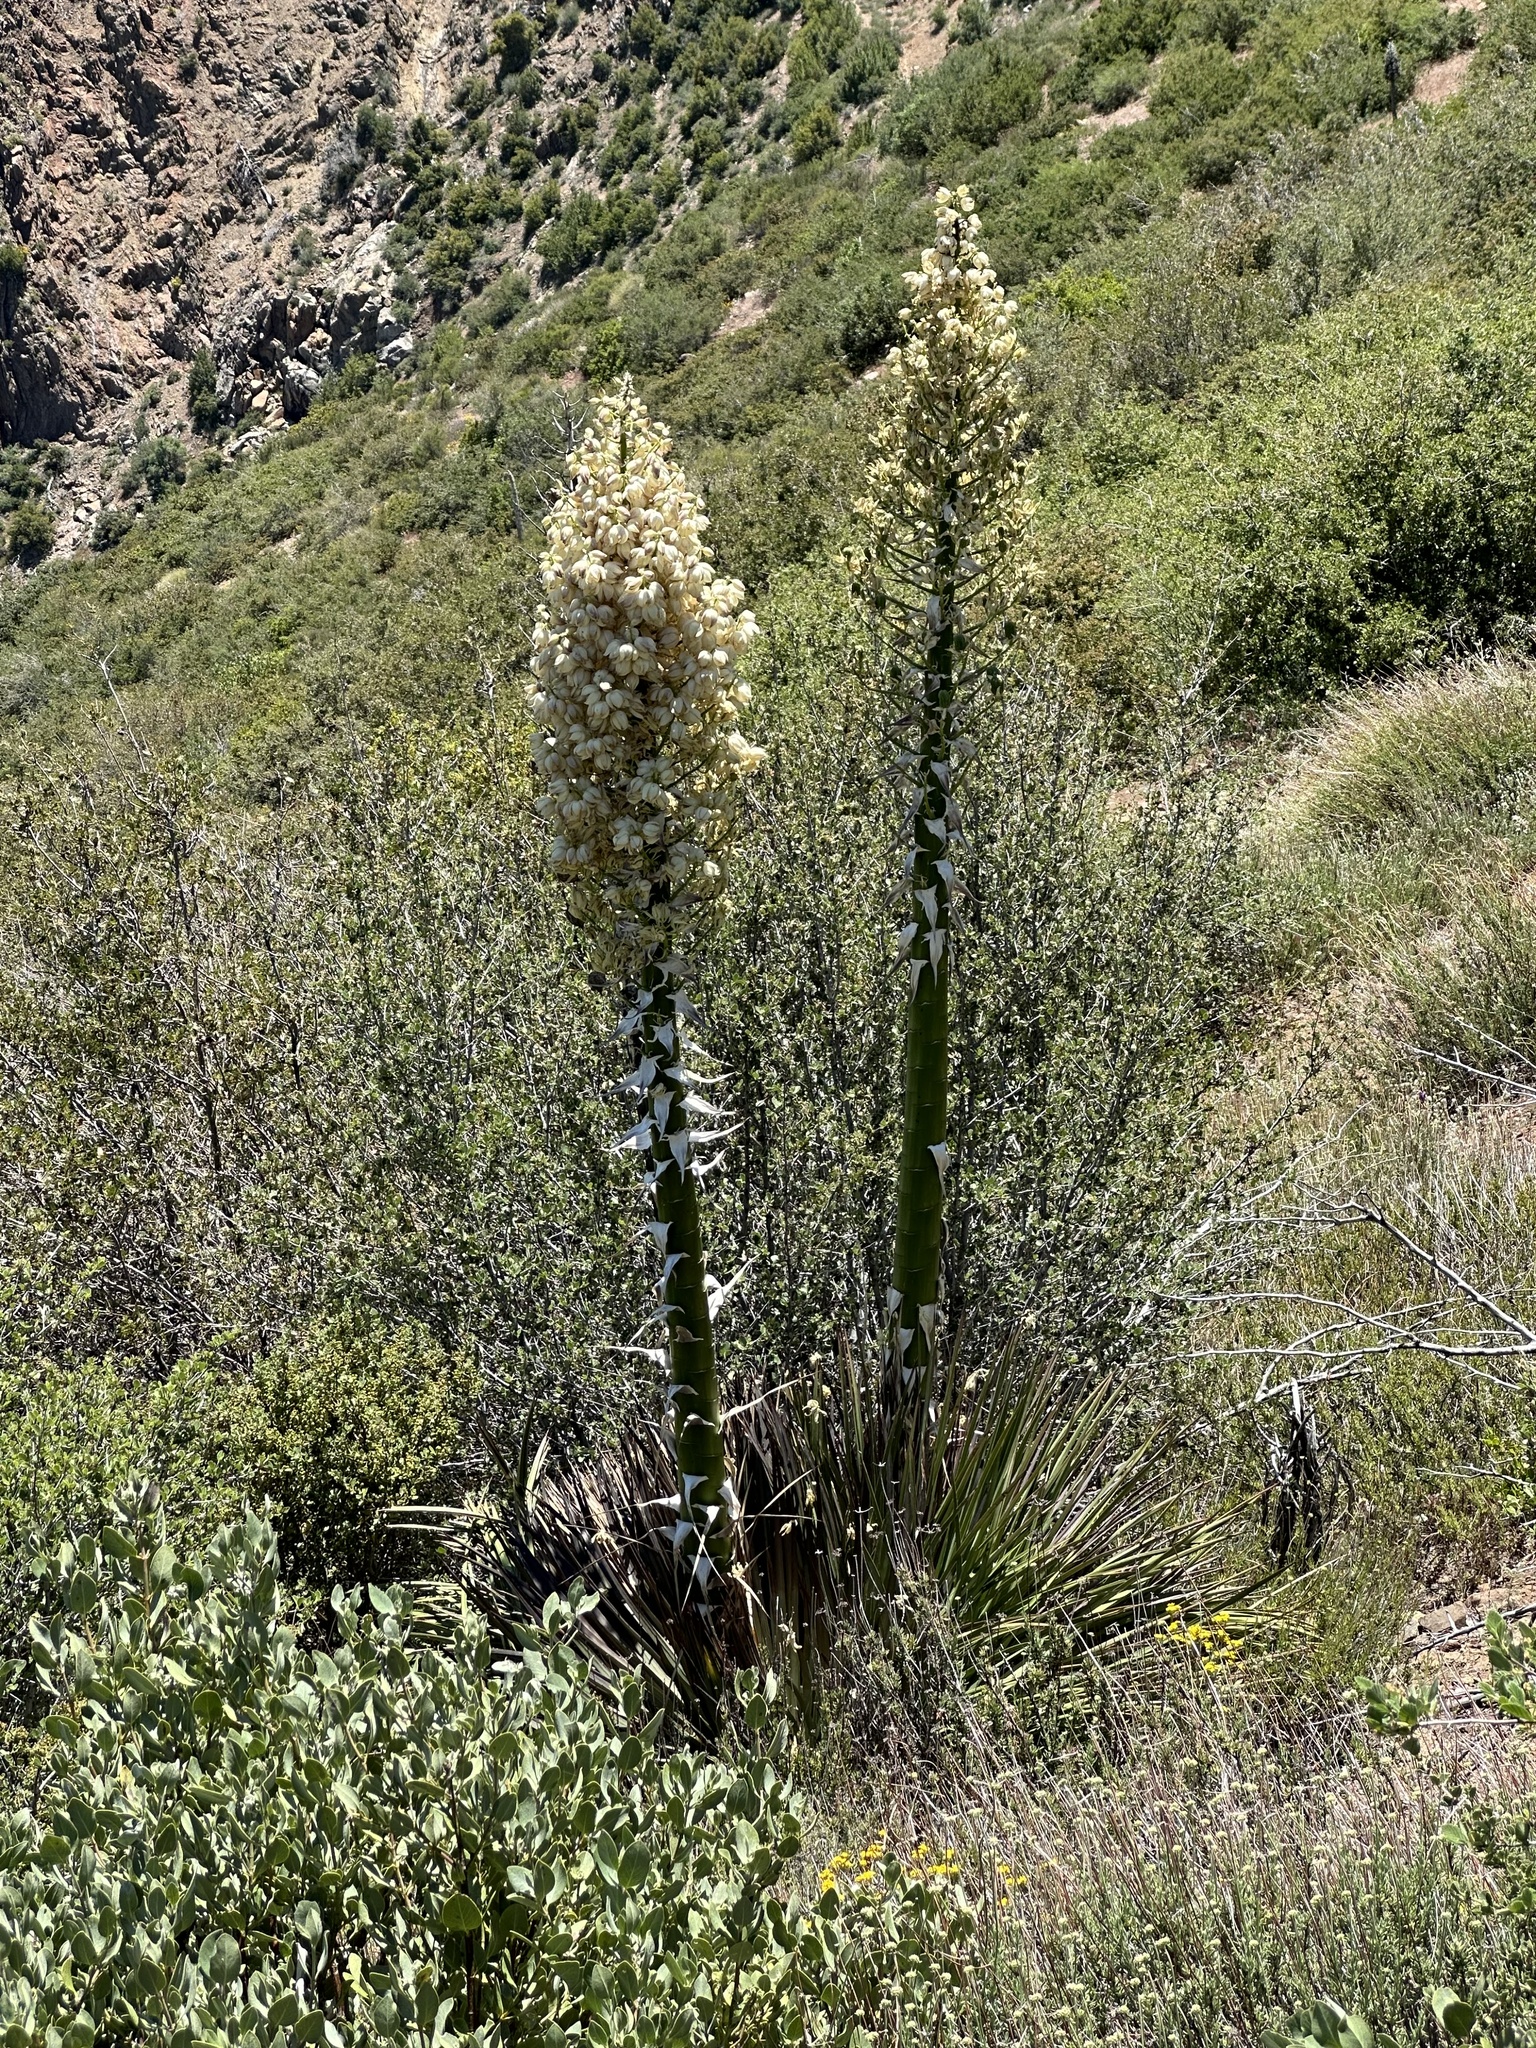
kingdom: Plantae
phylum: Tracheophyta
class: Liliopsida
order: Asparagales
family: Asparagaceae
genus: Hesperoyucca
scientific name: Hesperoyucca whipplei
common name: Our lord's-candle
